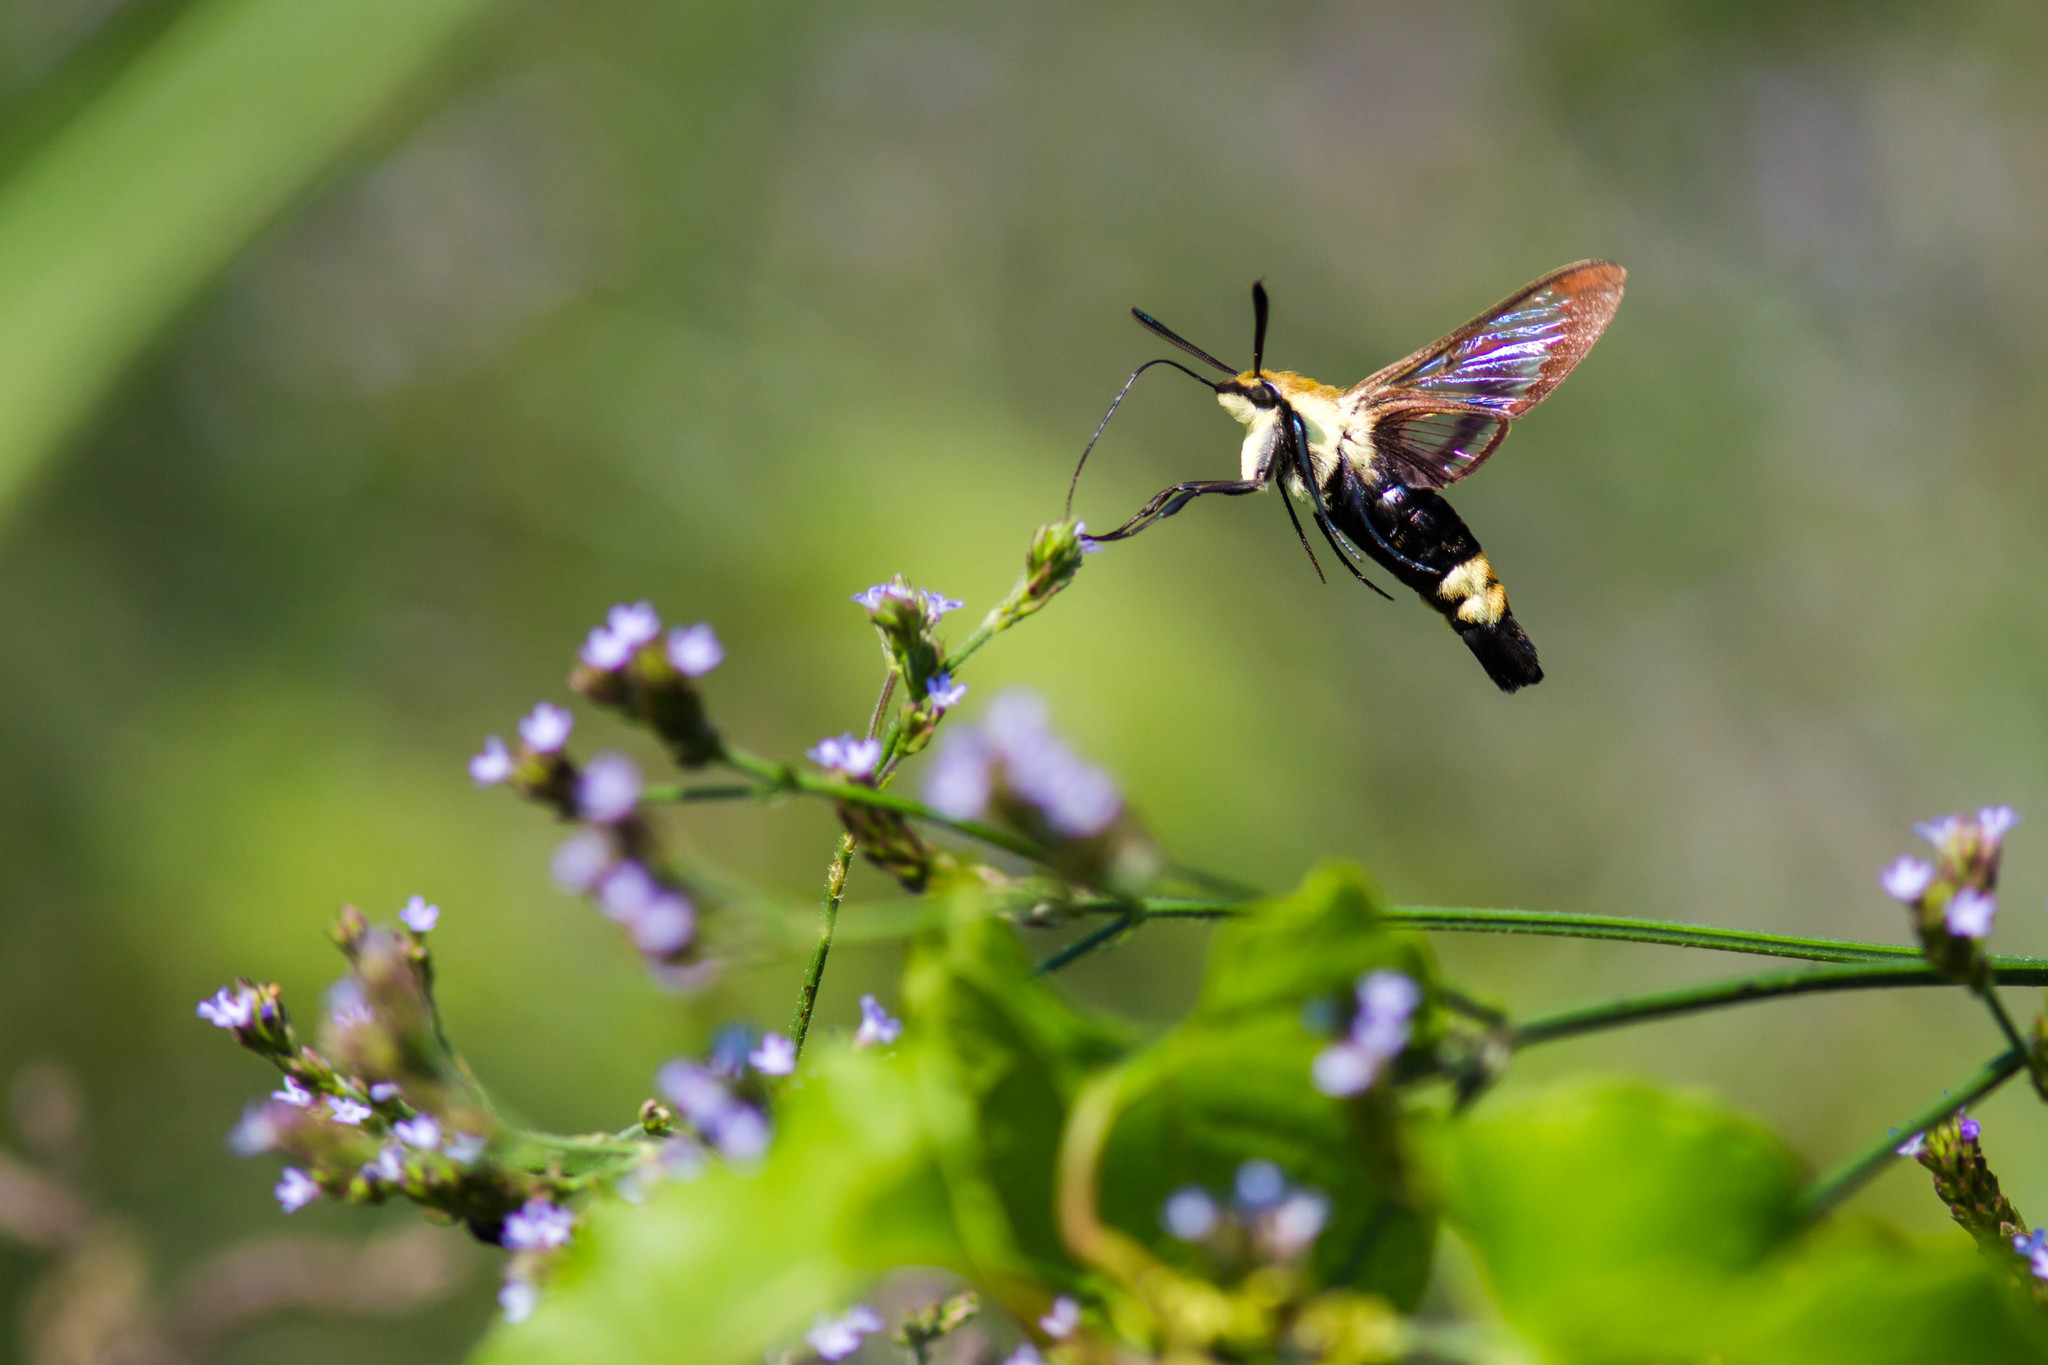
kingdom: Animalia
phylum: Arthropoda
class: Insecta
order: Lepidoptera
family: Sphingidae
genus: Hemaris
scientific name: Hemaris diffinis
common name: Bumblebee moth
